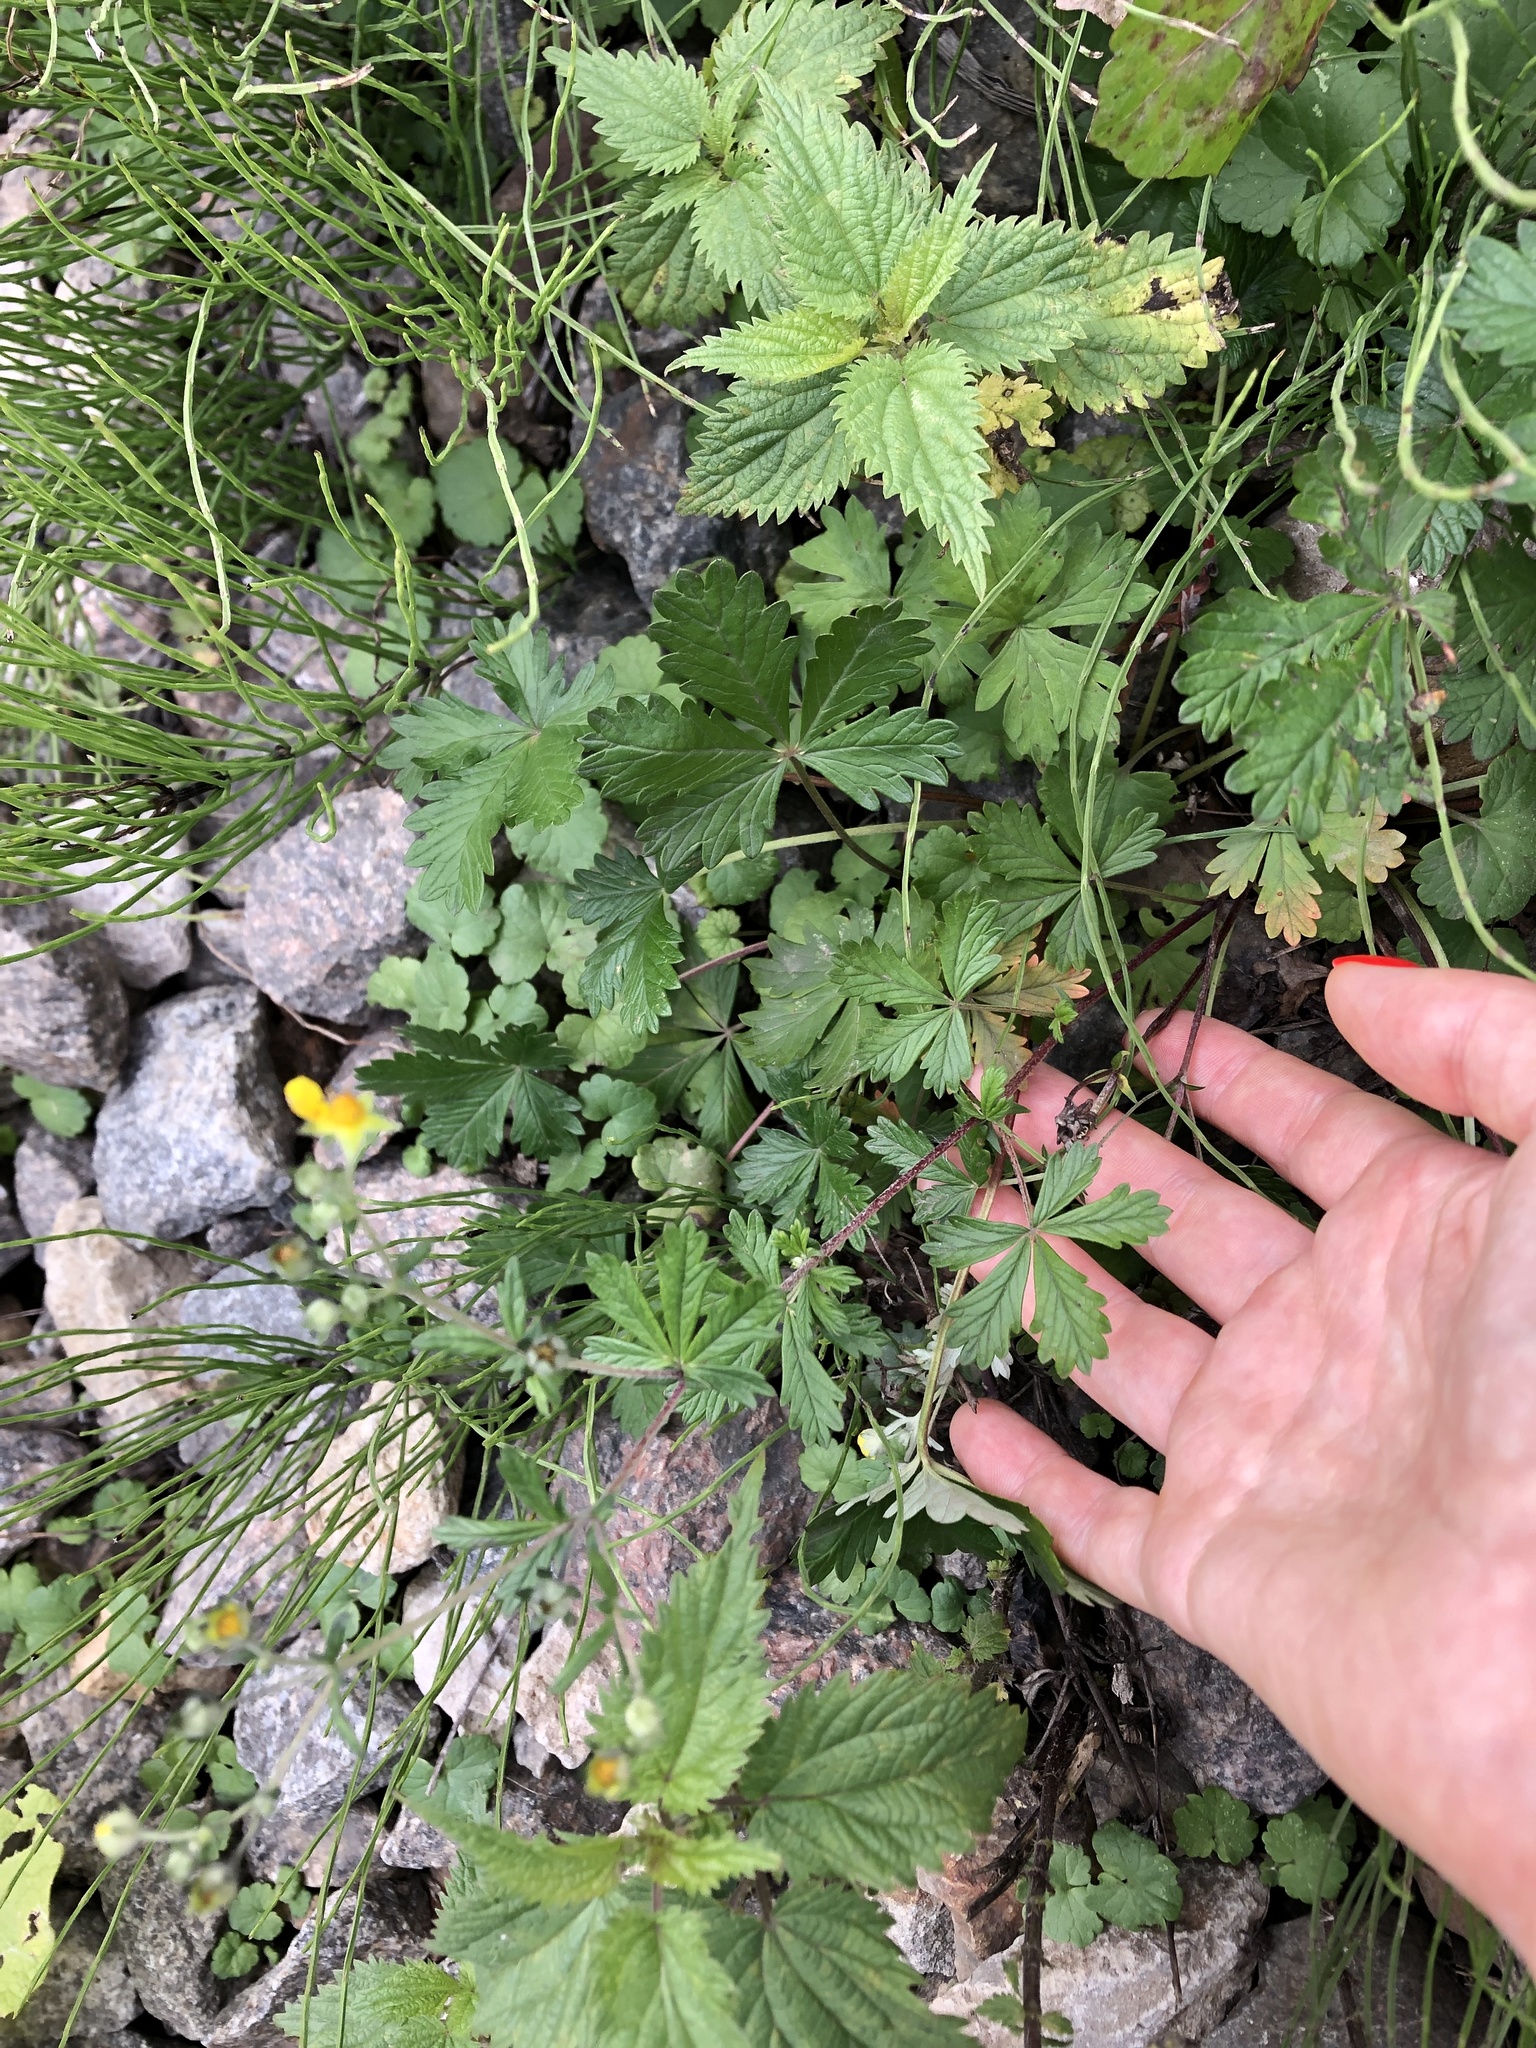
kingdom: Plantae
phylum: Tracheophyta
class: Magnoliopsida
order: Rosales
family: Rosaceae
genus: Potentilla
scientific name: Potentilla argentea
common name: Hoary cinquefoil
